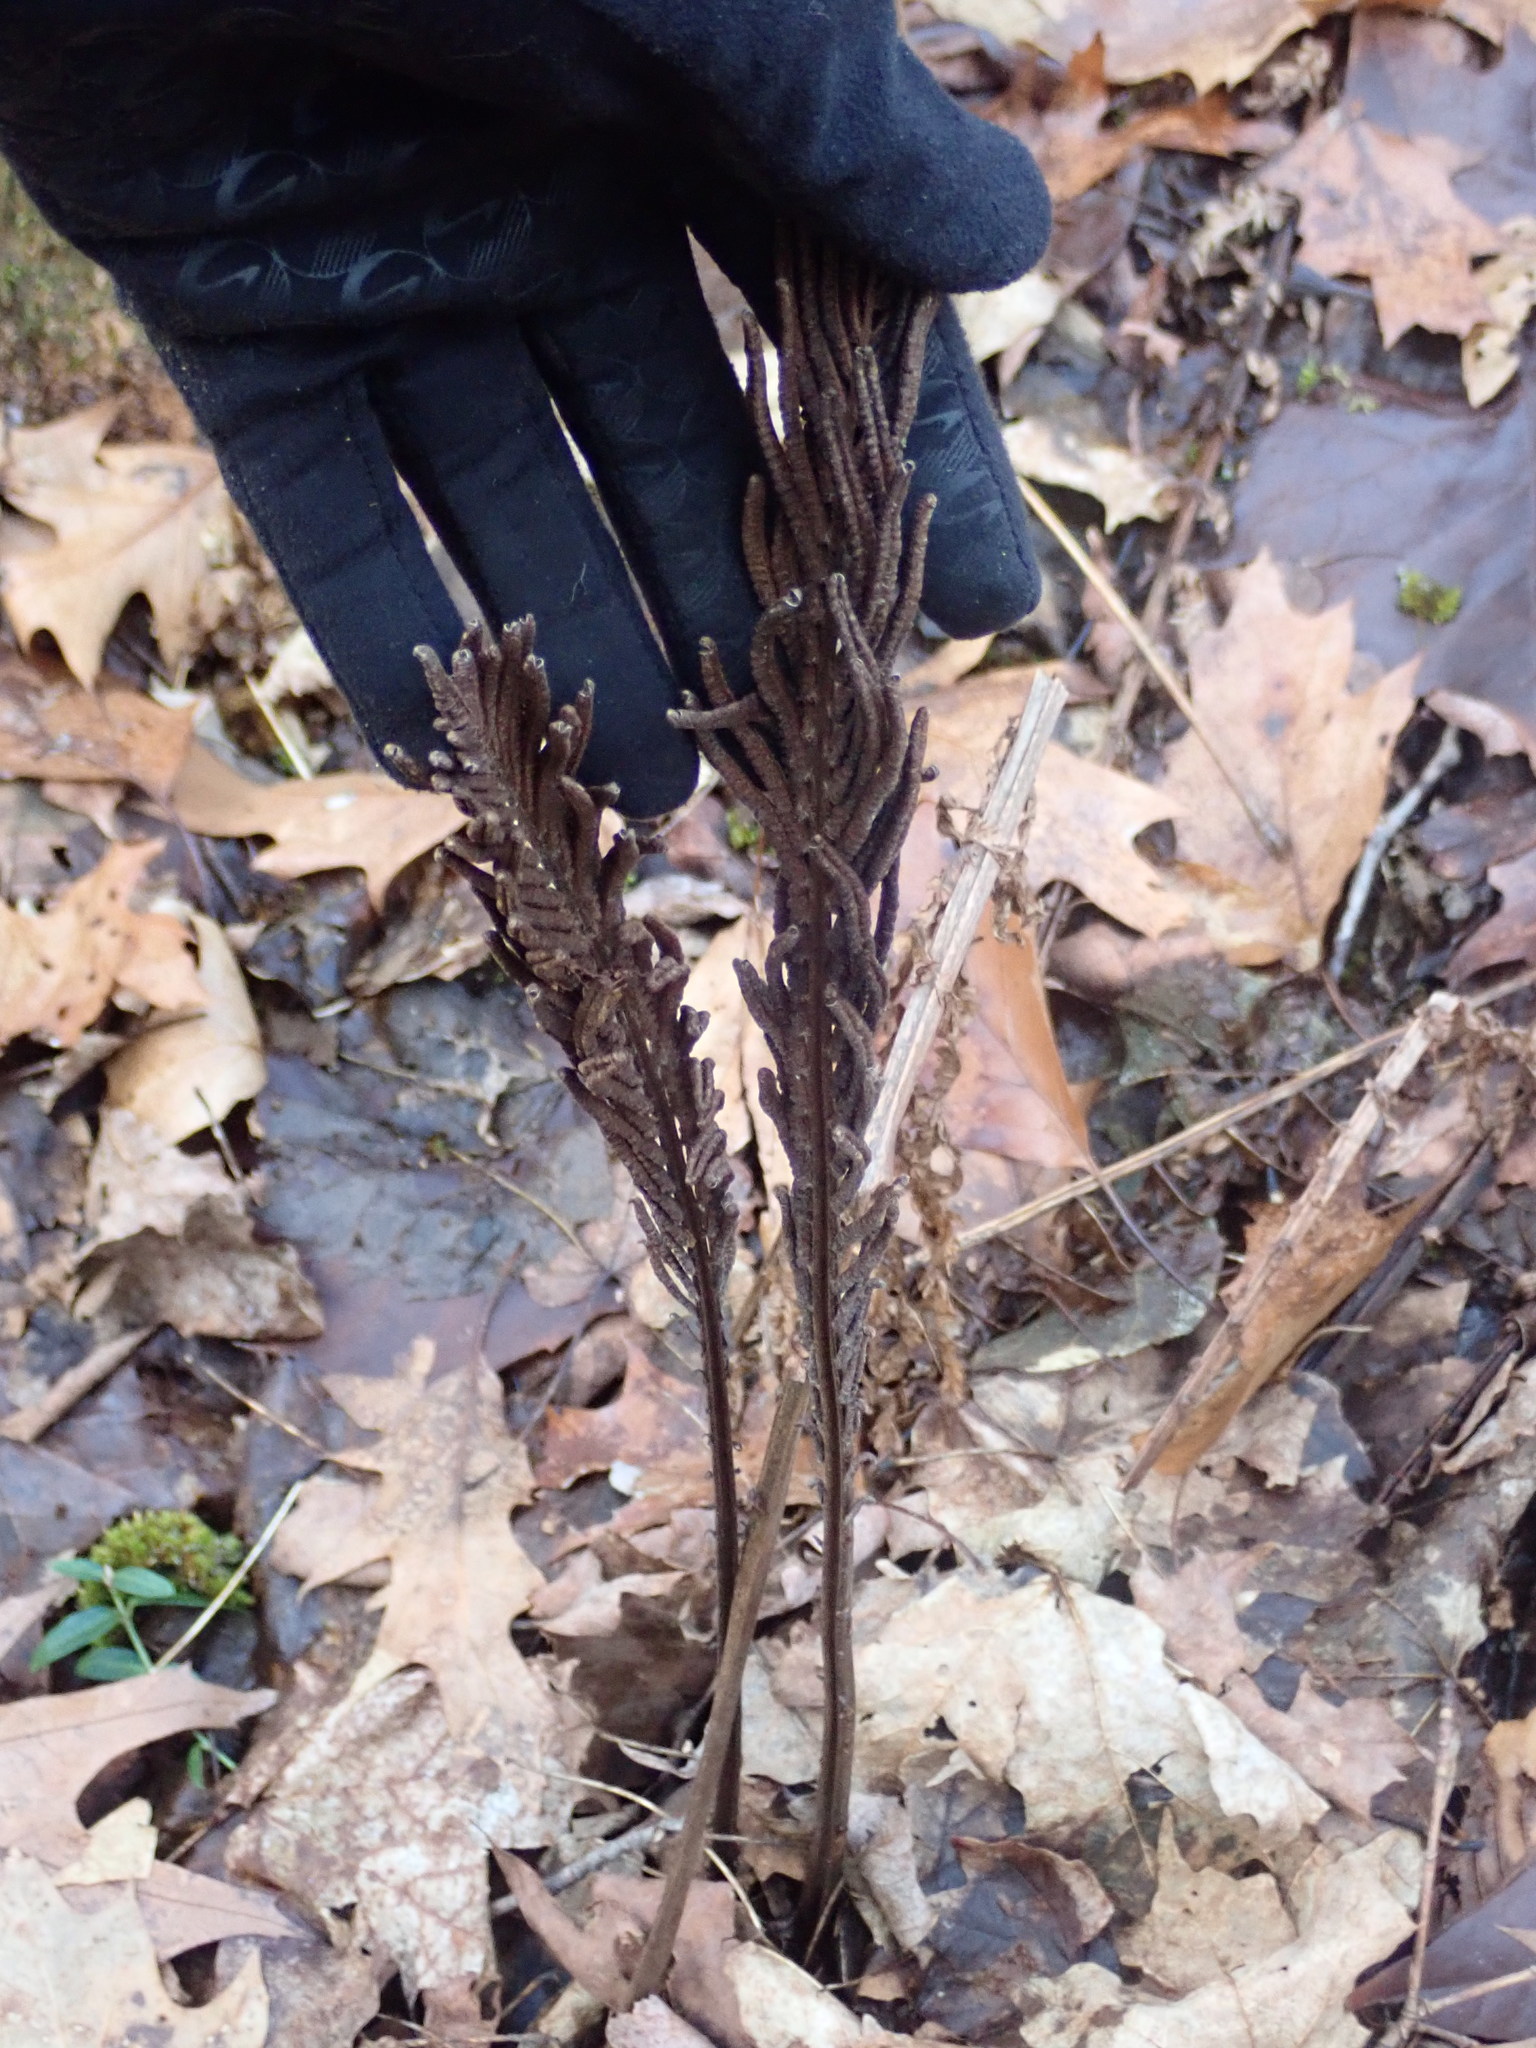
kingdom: Plantae
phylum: Tracheophyta
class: Polypodiopsida
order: Polypodiales
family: Onocleaceae
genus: Matteuccia
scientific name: Matteuccia struthiopteris
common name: Ostrich fern
